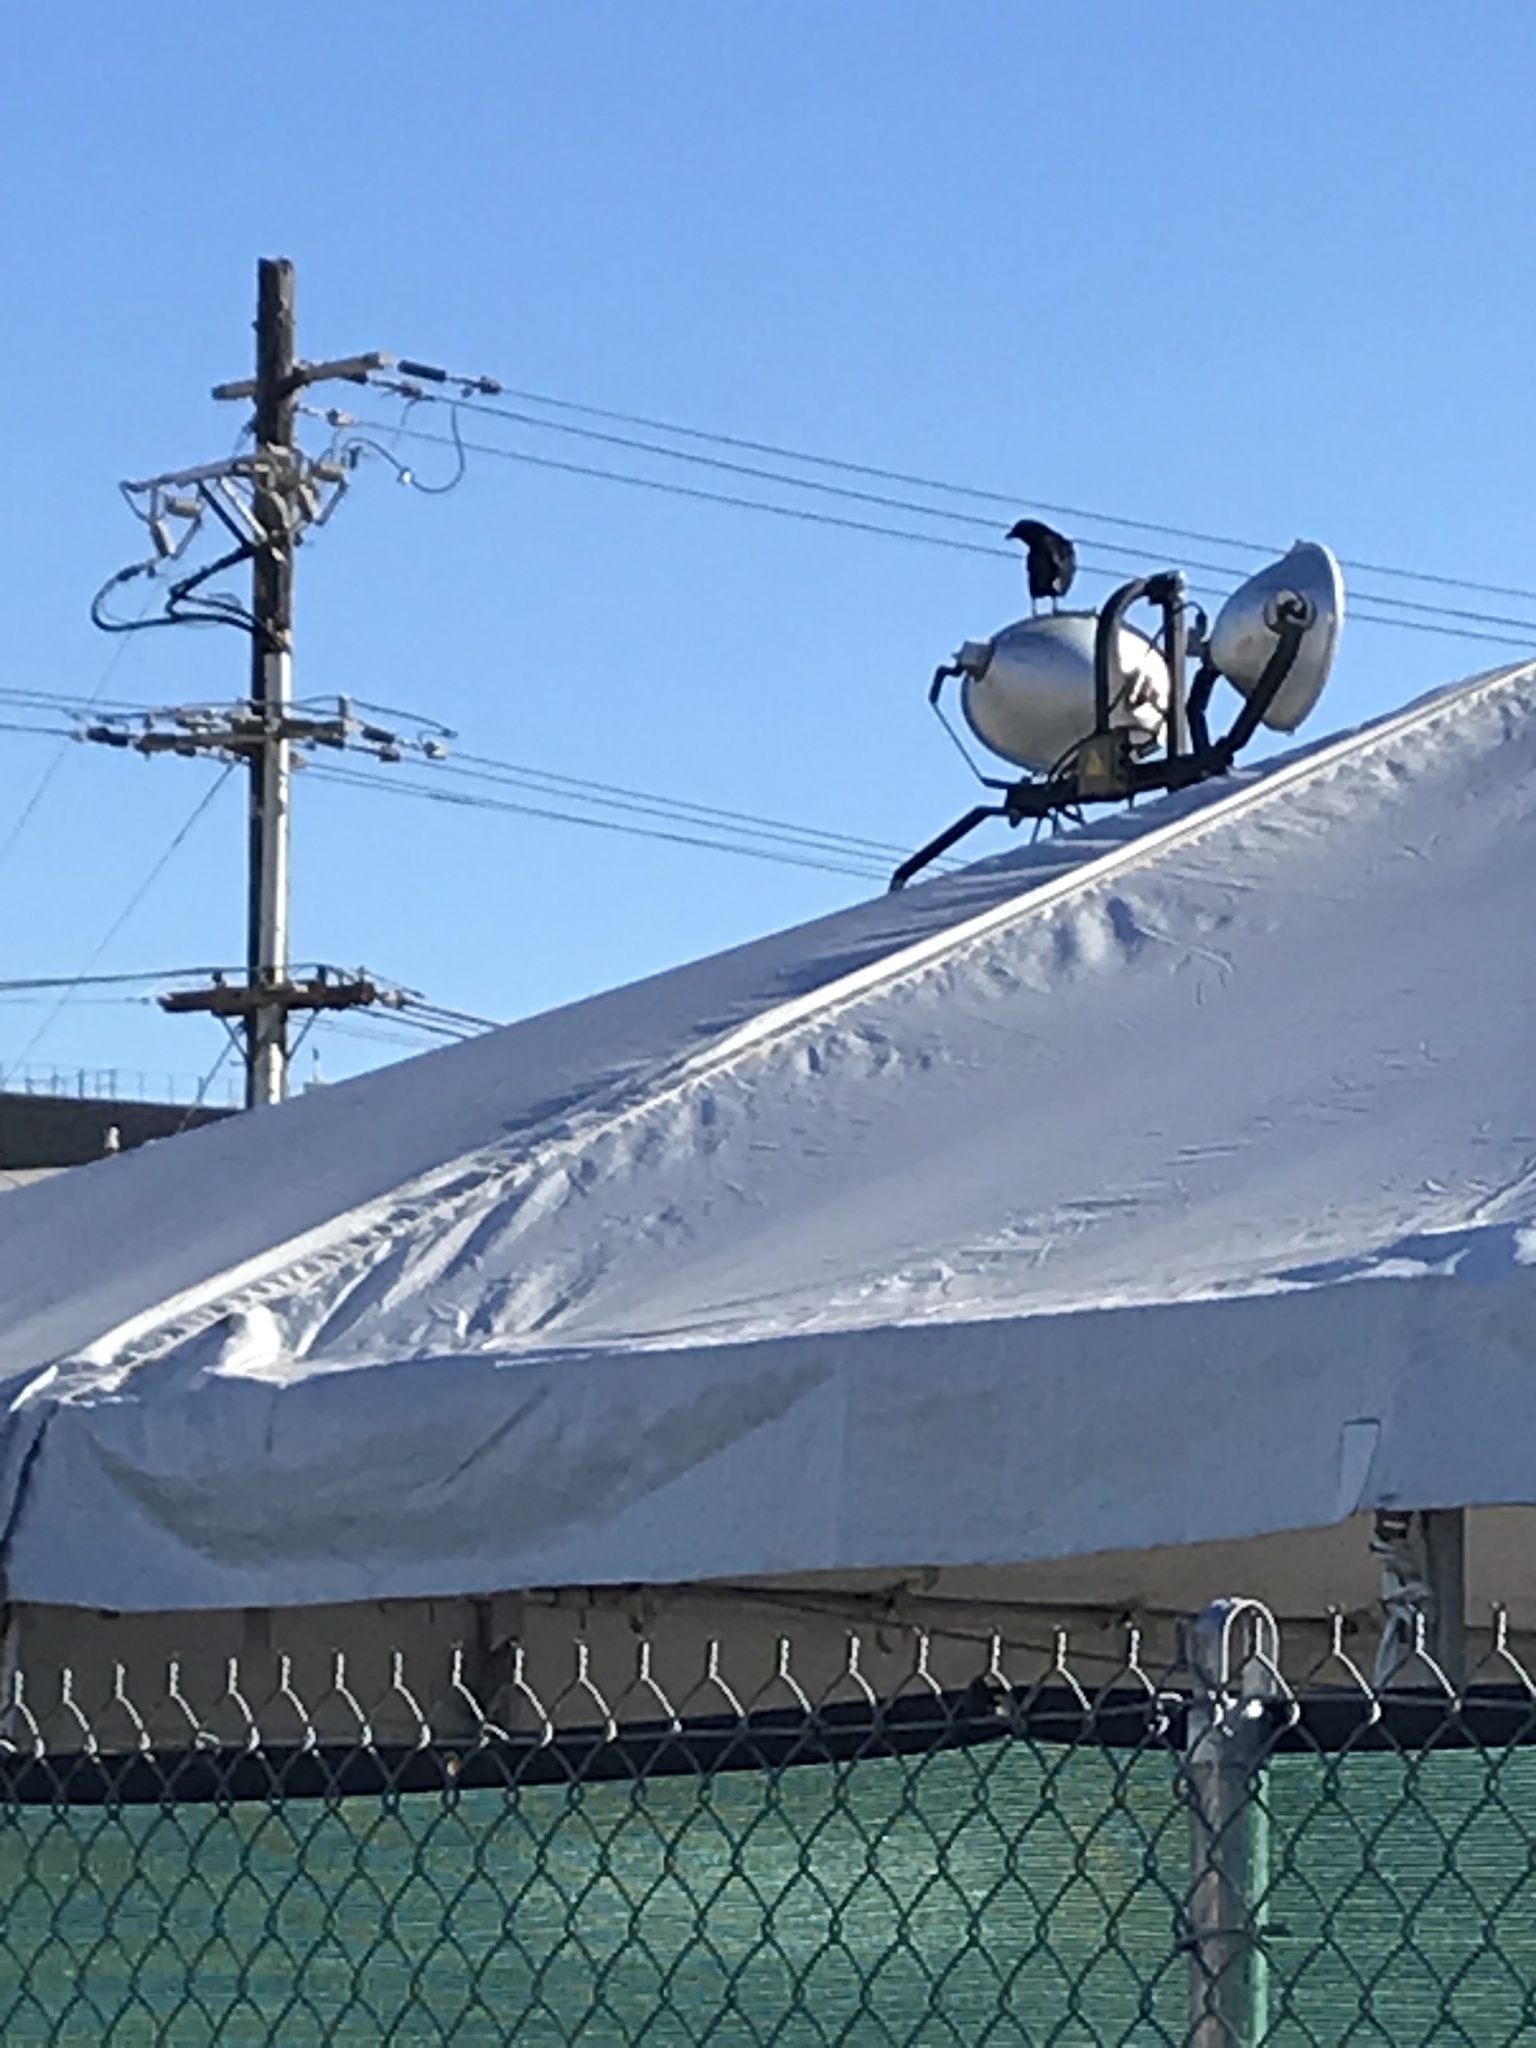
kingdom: Animalia
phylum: Chordata
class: Aves
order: Passeriformes
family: Corvidae
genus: Corvus
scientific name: Corvus brachyrhynchos
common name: American crow
